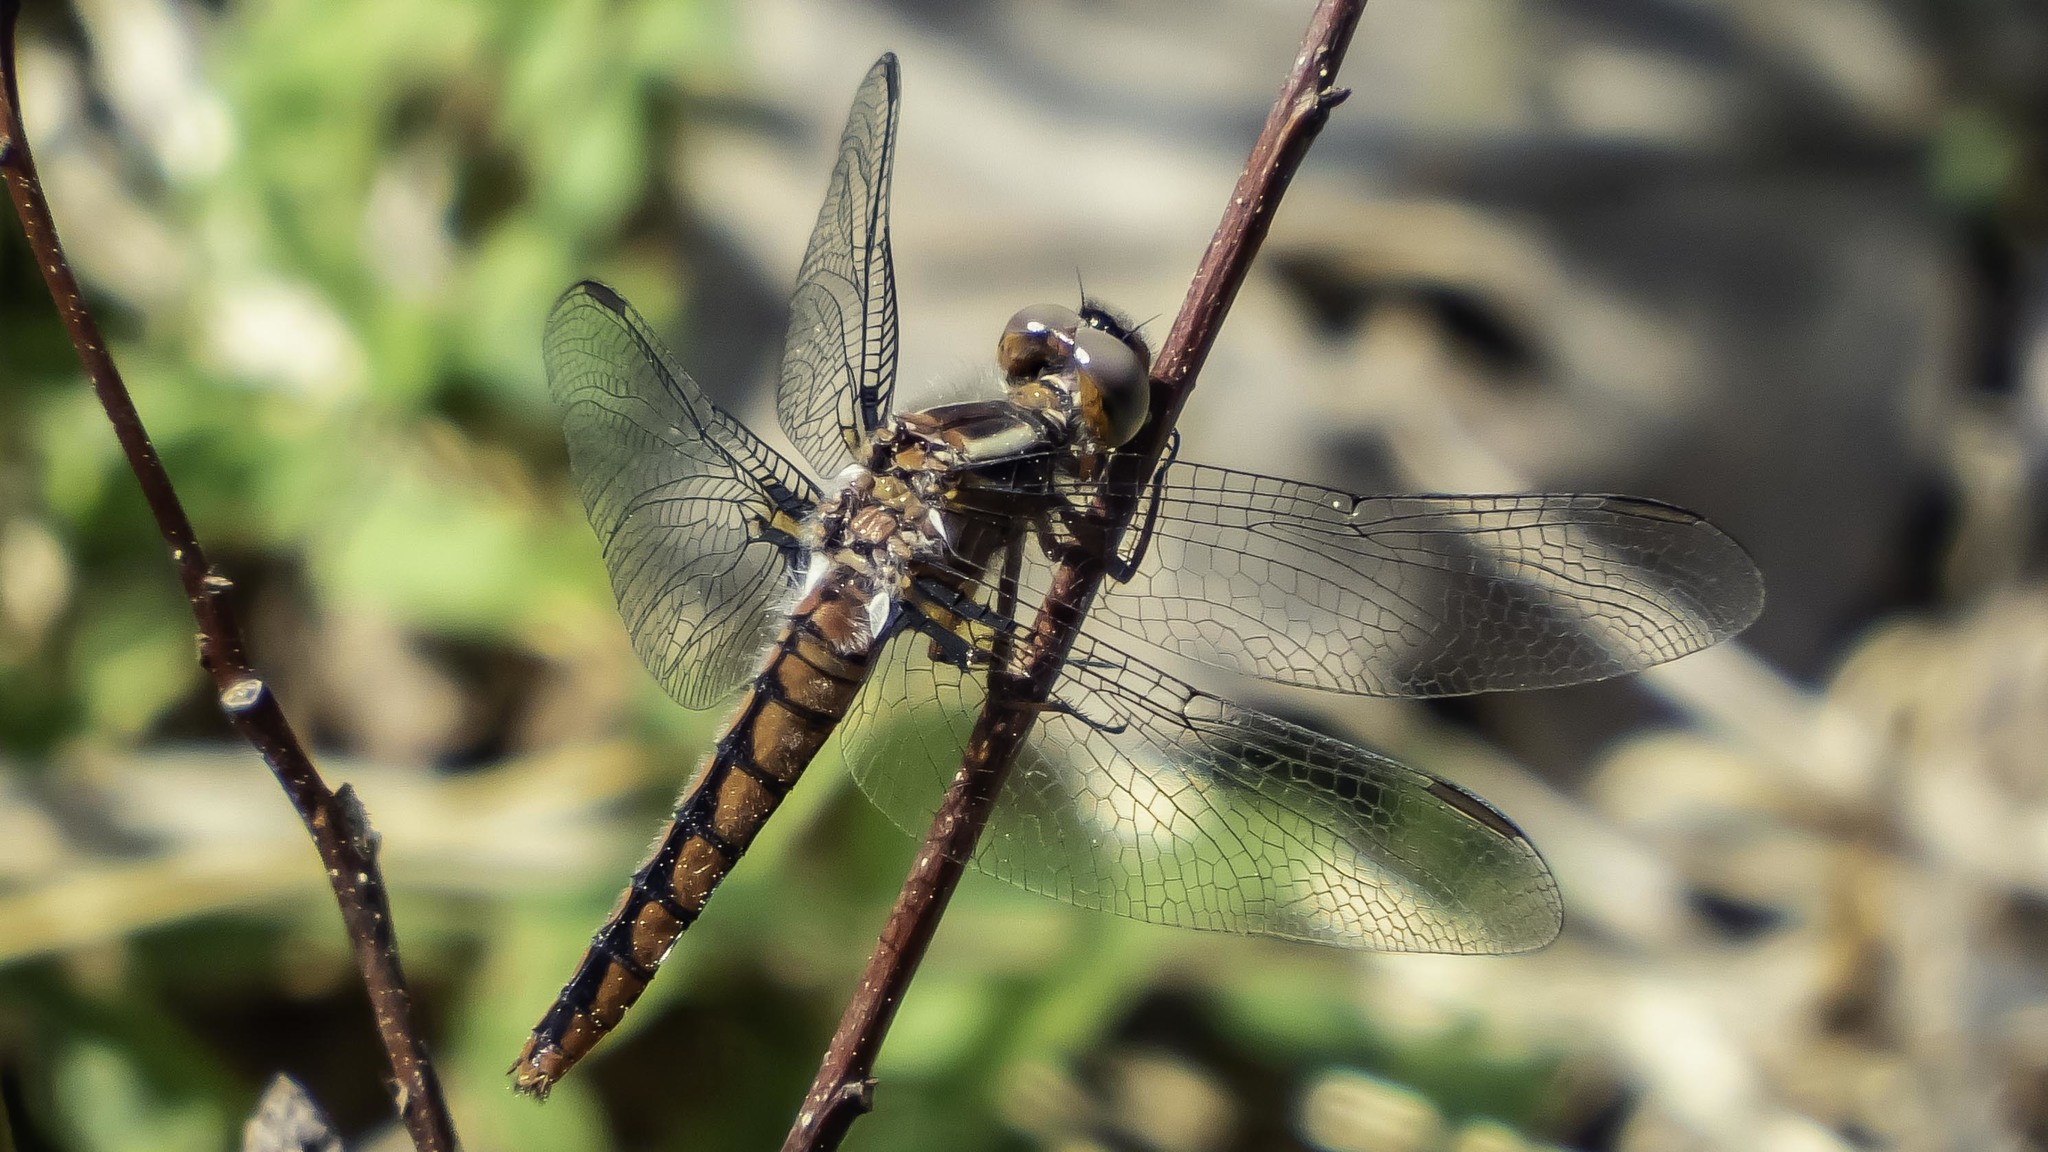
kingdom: Animalia
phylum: Arthropoda
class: Insecta
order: Odonata
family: Libellulidae
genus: Ladona
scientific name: Ladona deplanata
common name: Blue corporal
